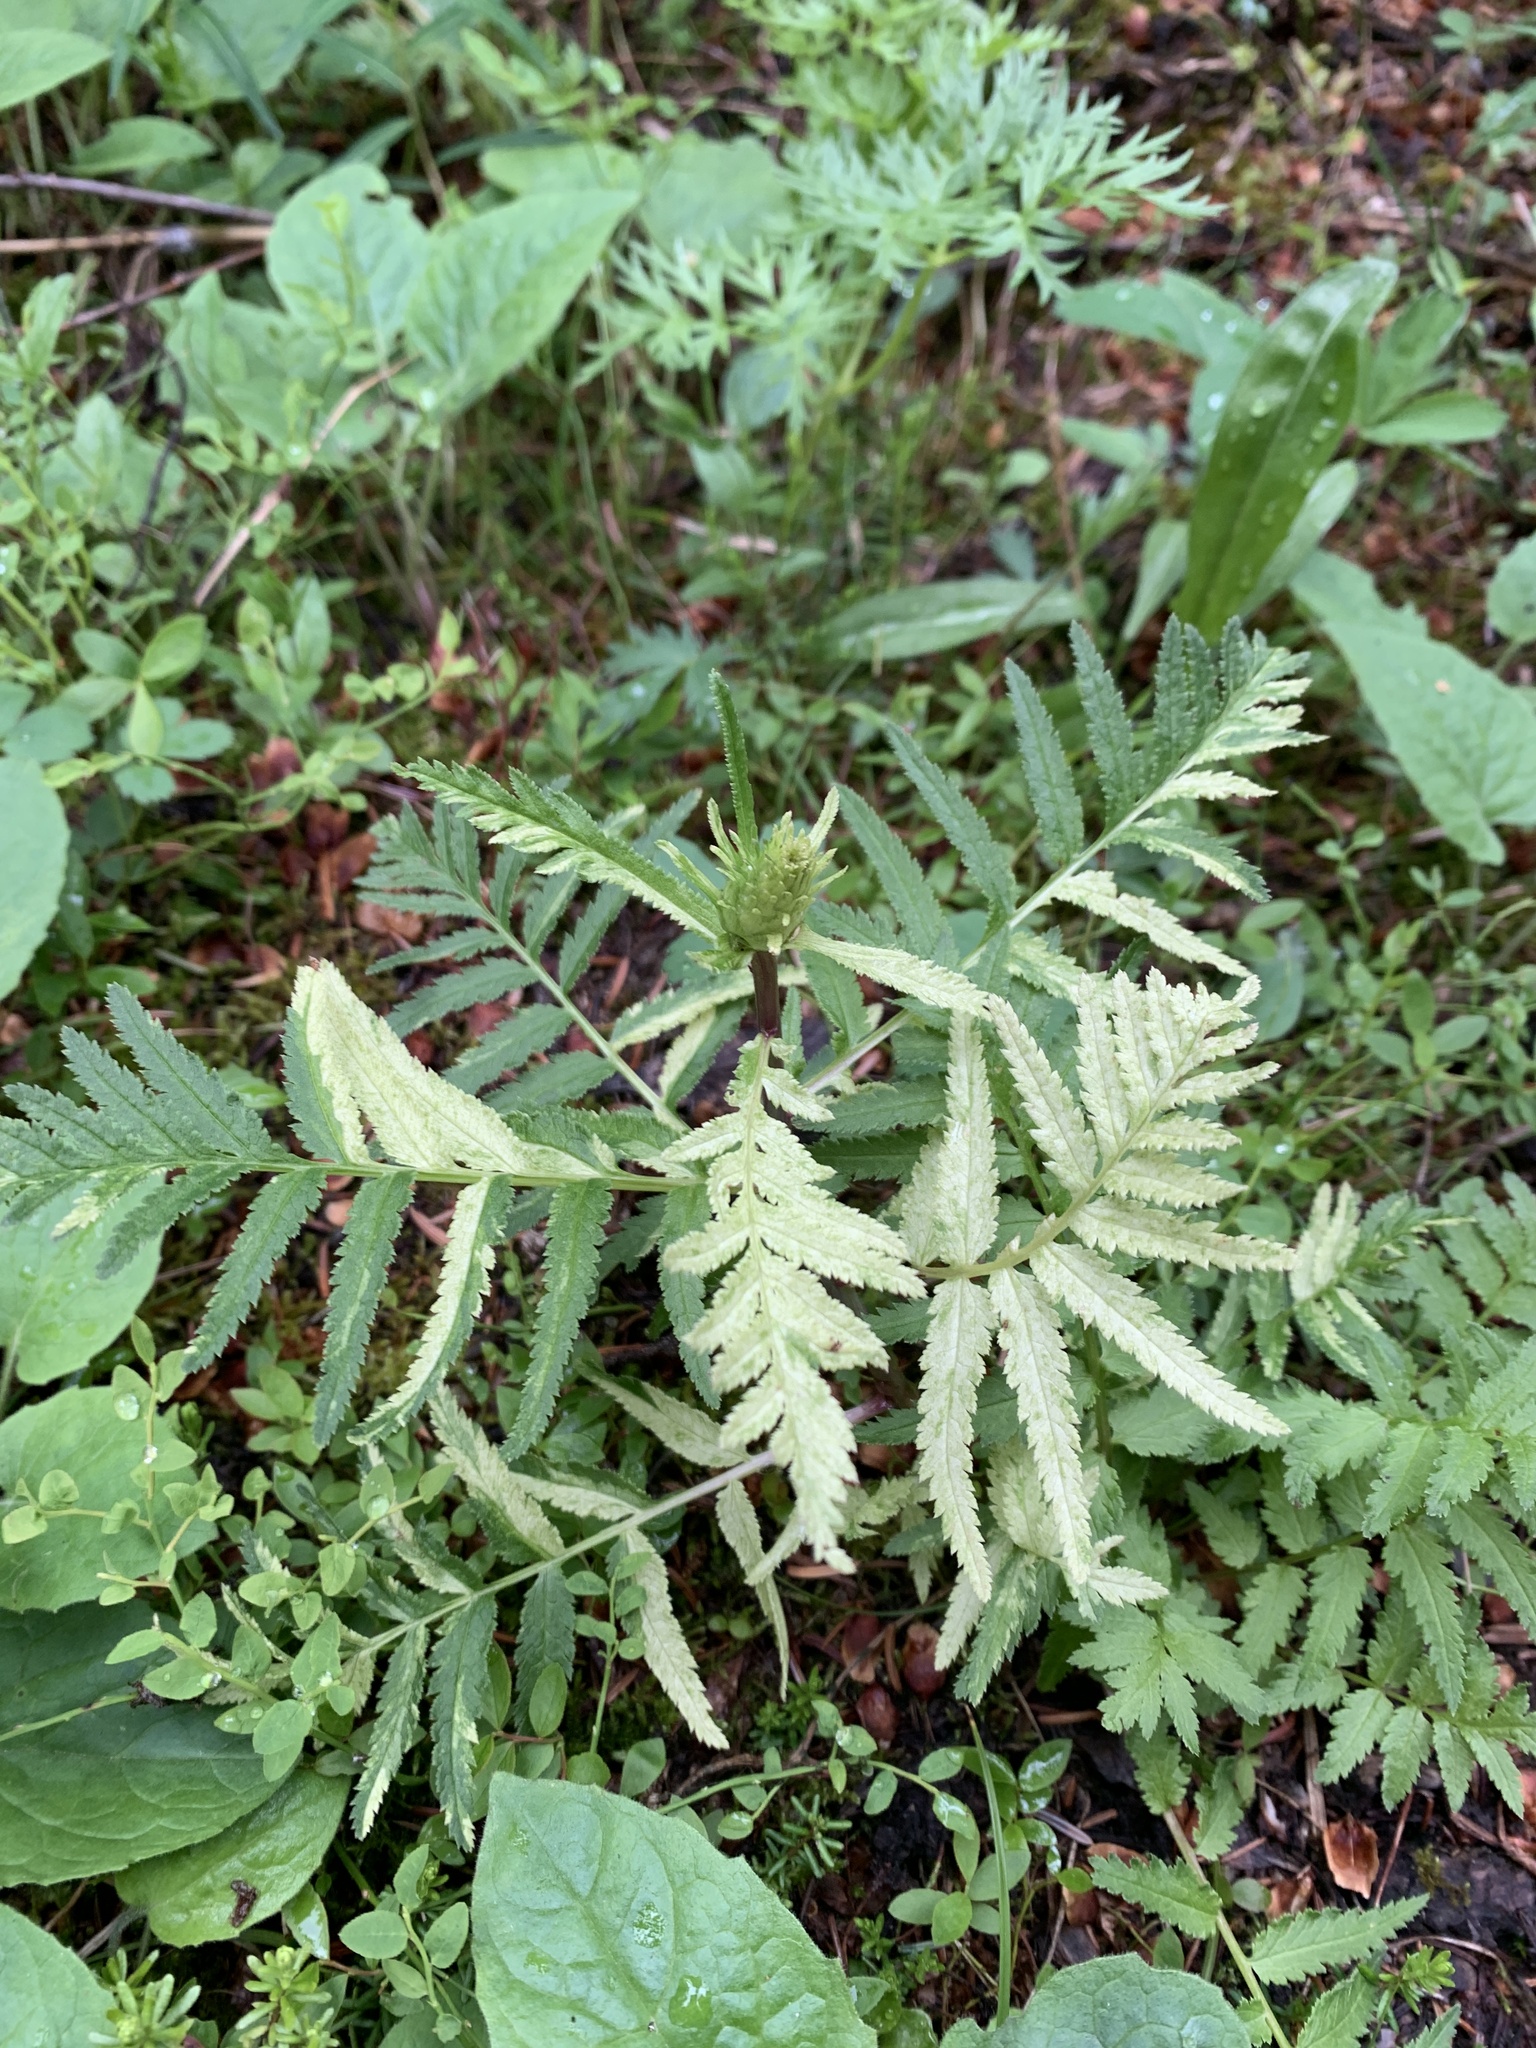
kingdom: Plantae
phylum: Tracheophyta
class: Magnoliopsida
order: Lamiales
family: Orobanchaceae
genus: Pedicularis
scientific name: Pedicularis bracteosa
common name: Bracted lousewort
